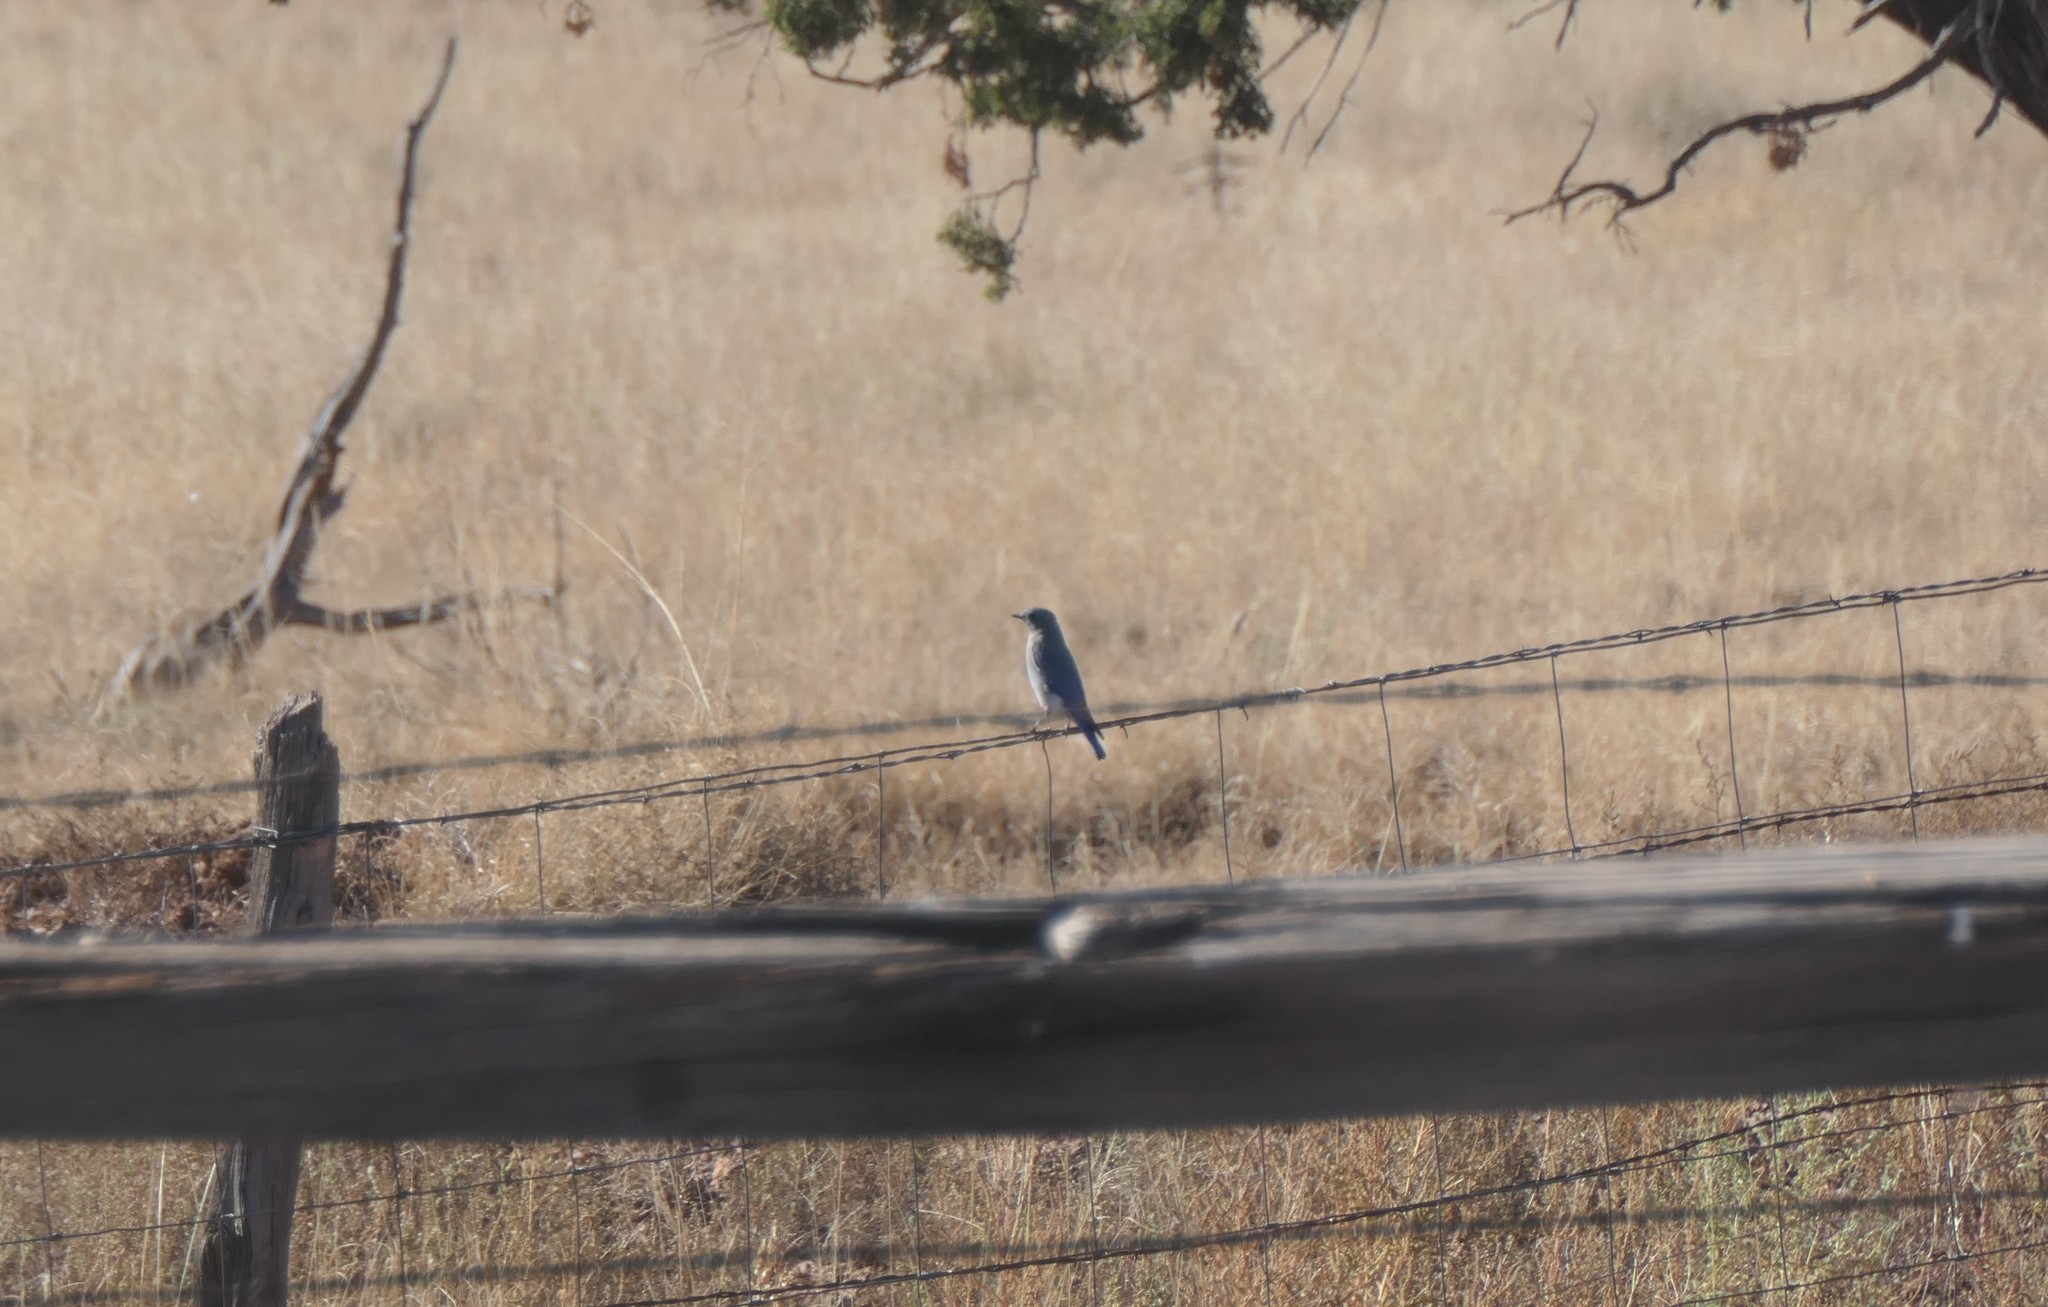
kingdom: Animalia
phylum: Chordata
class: Aves
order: Passeriformes
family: Turdidae
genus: Sialia
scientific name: Sialia currucoides
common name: Mountain bluebird
